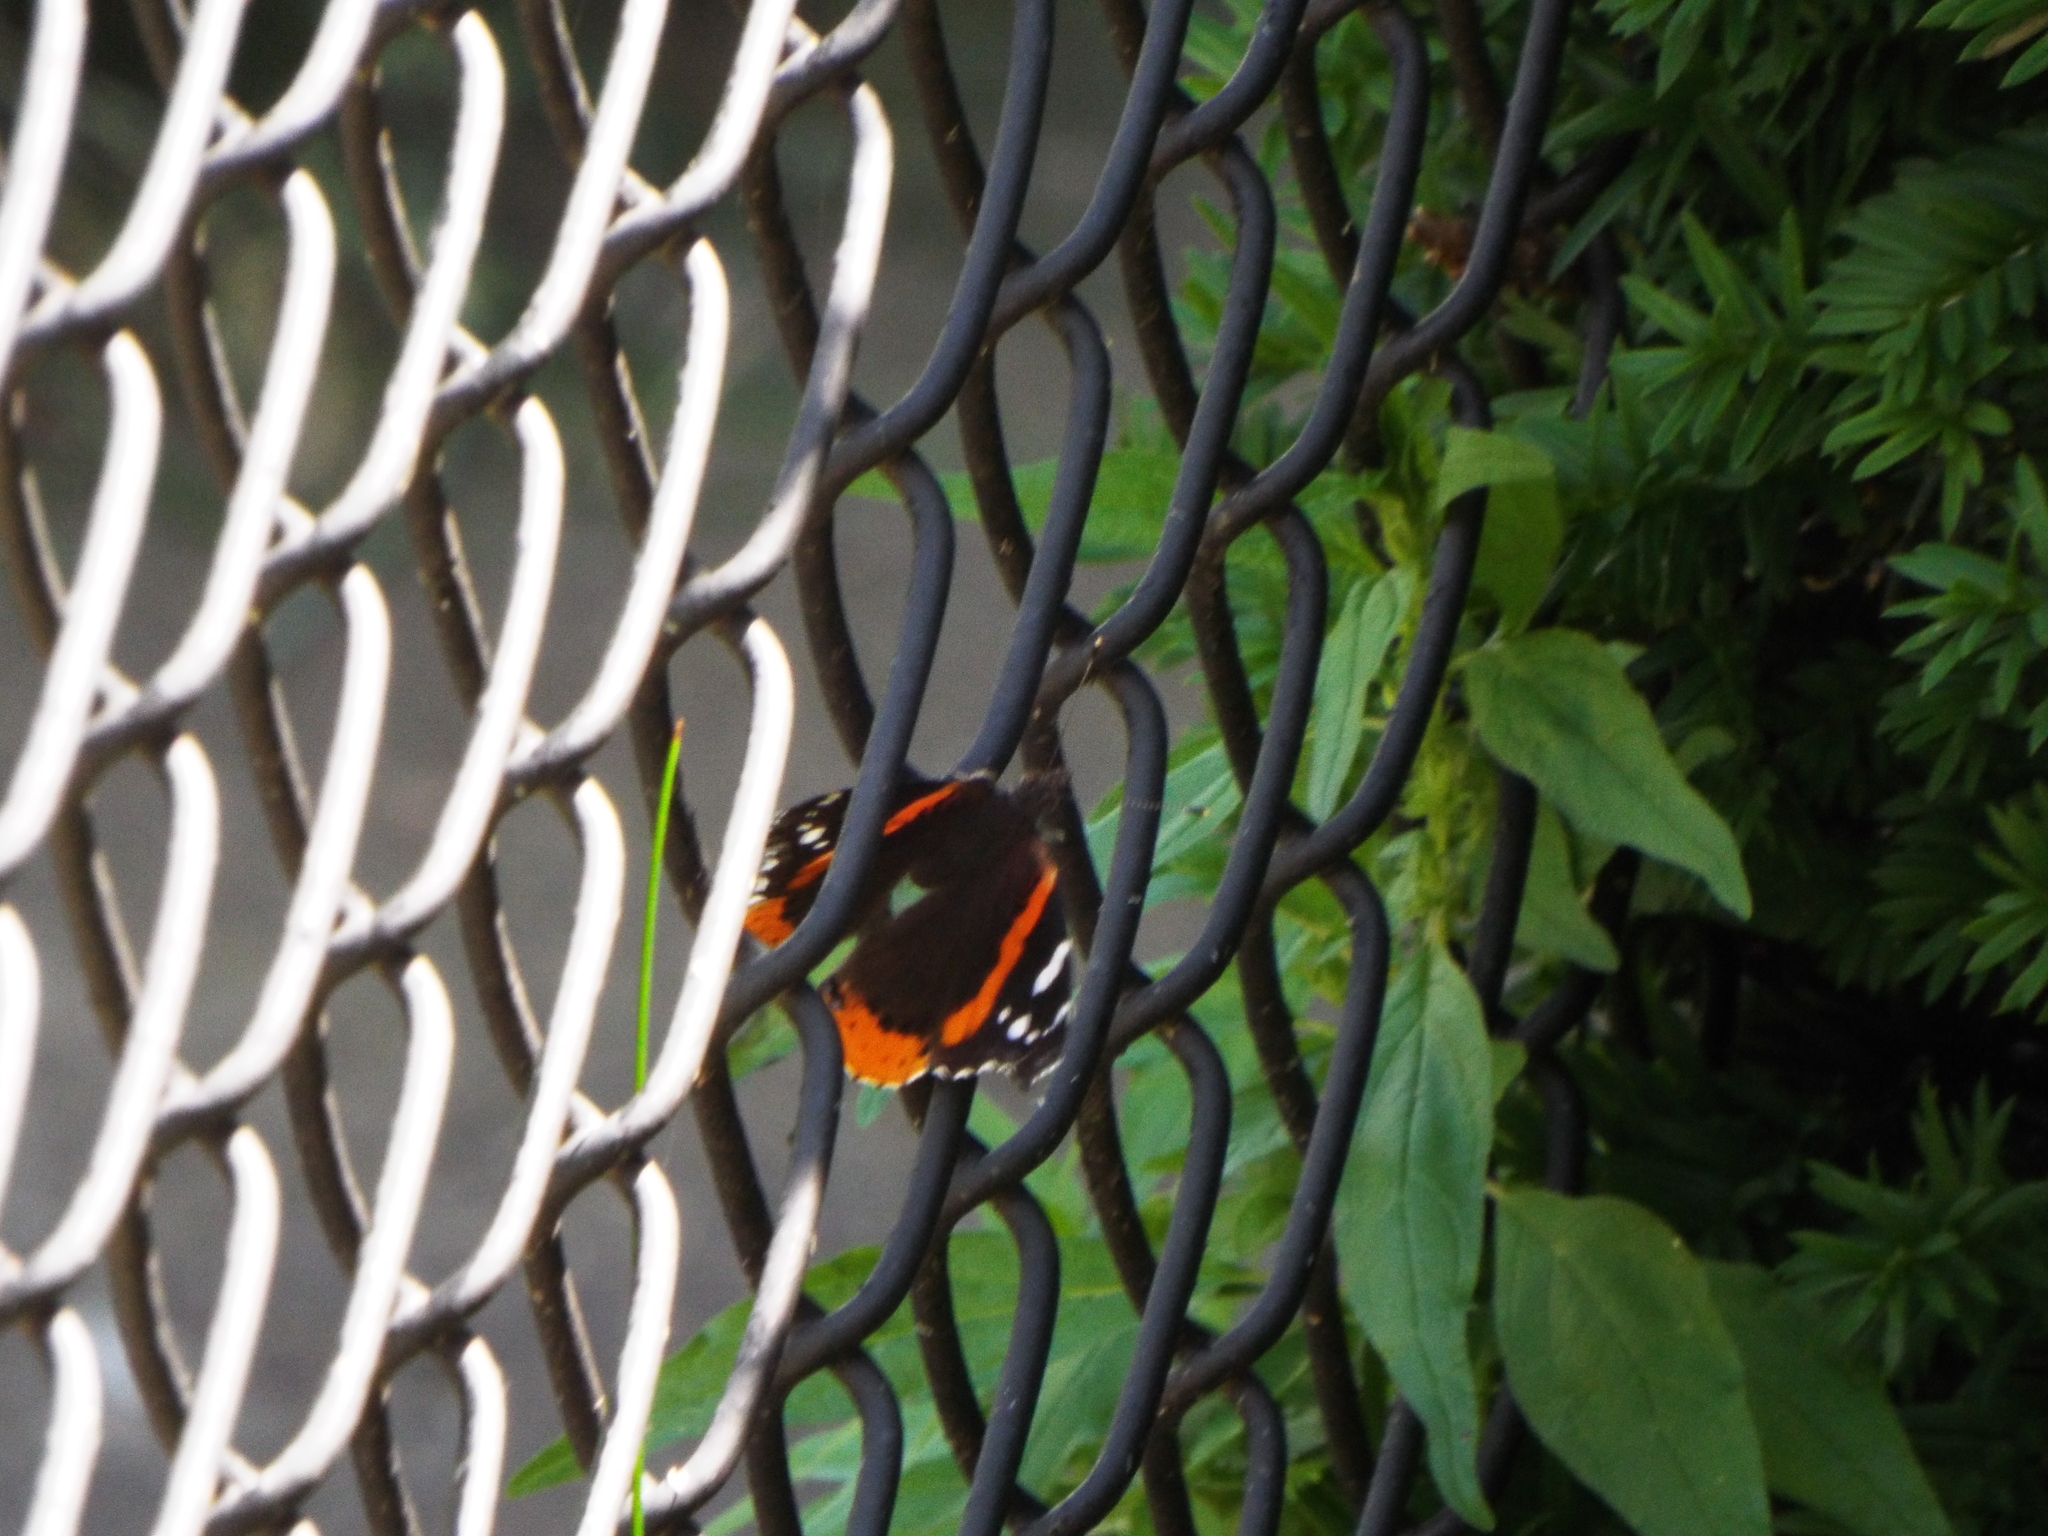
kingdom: Animalia
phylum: Arthropoda
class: Insecta
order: Lepidoptera
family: Nymphalidae
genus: Vanessa
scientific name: Vanessa atalanta
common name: Red admiral
